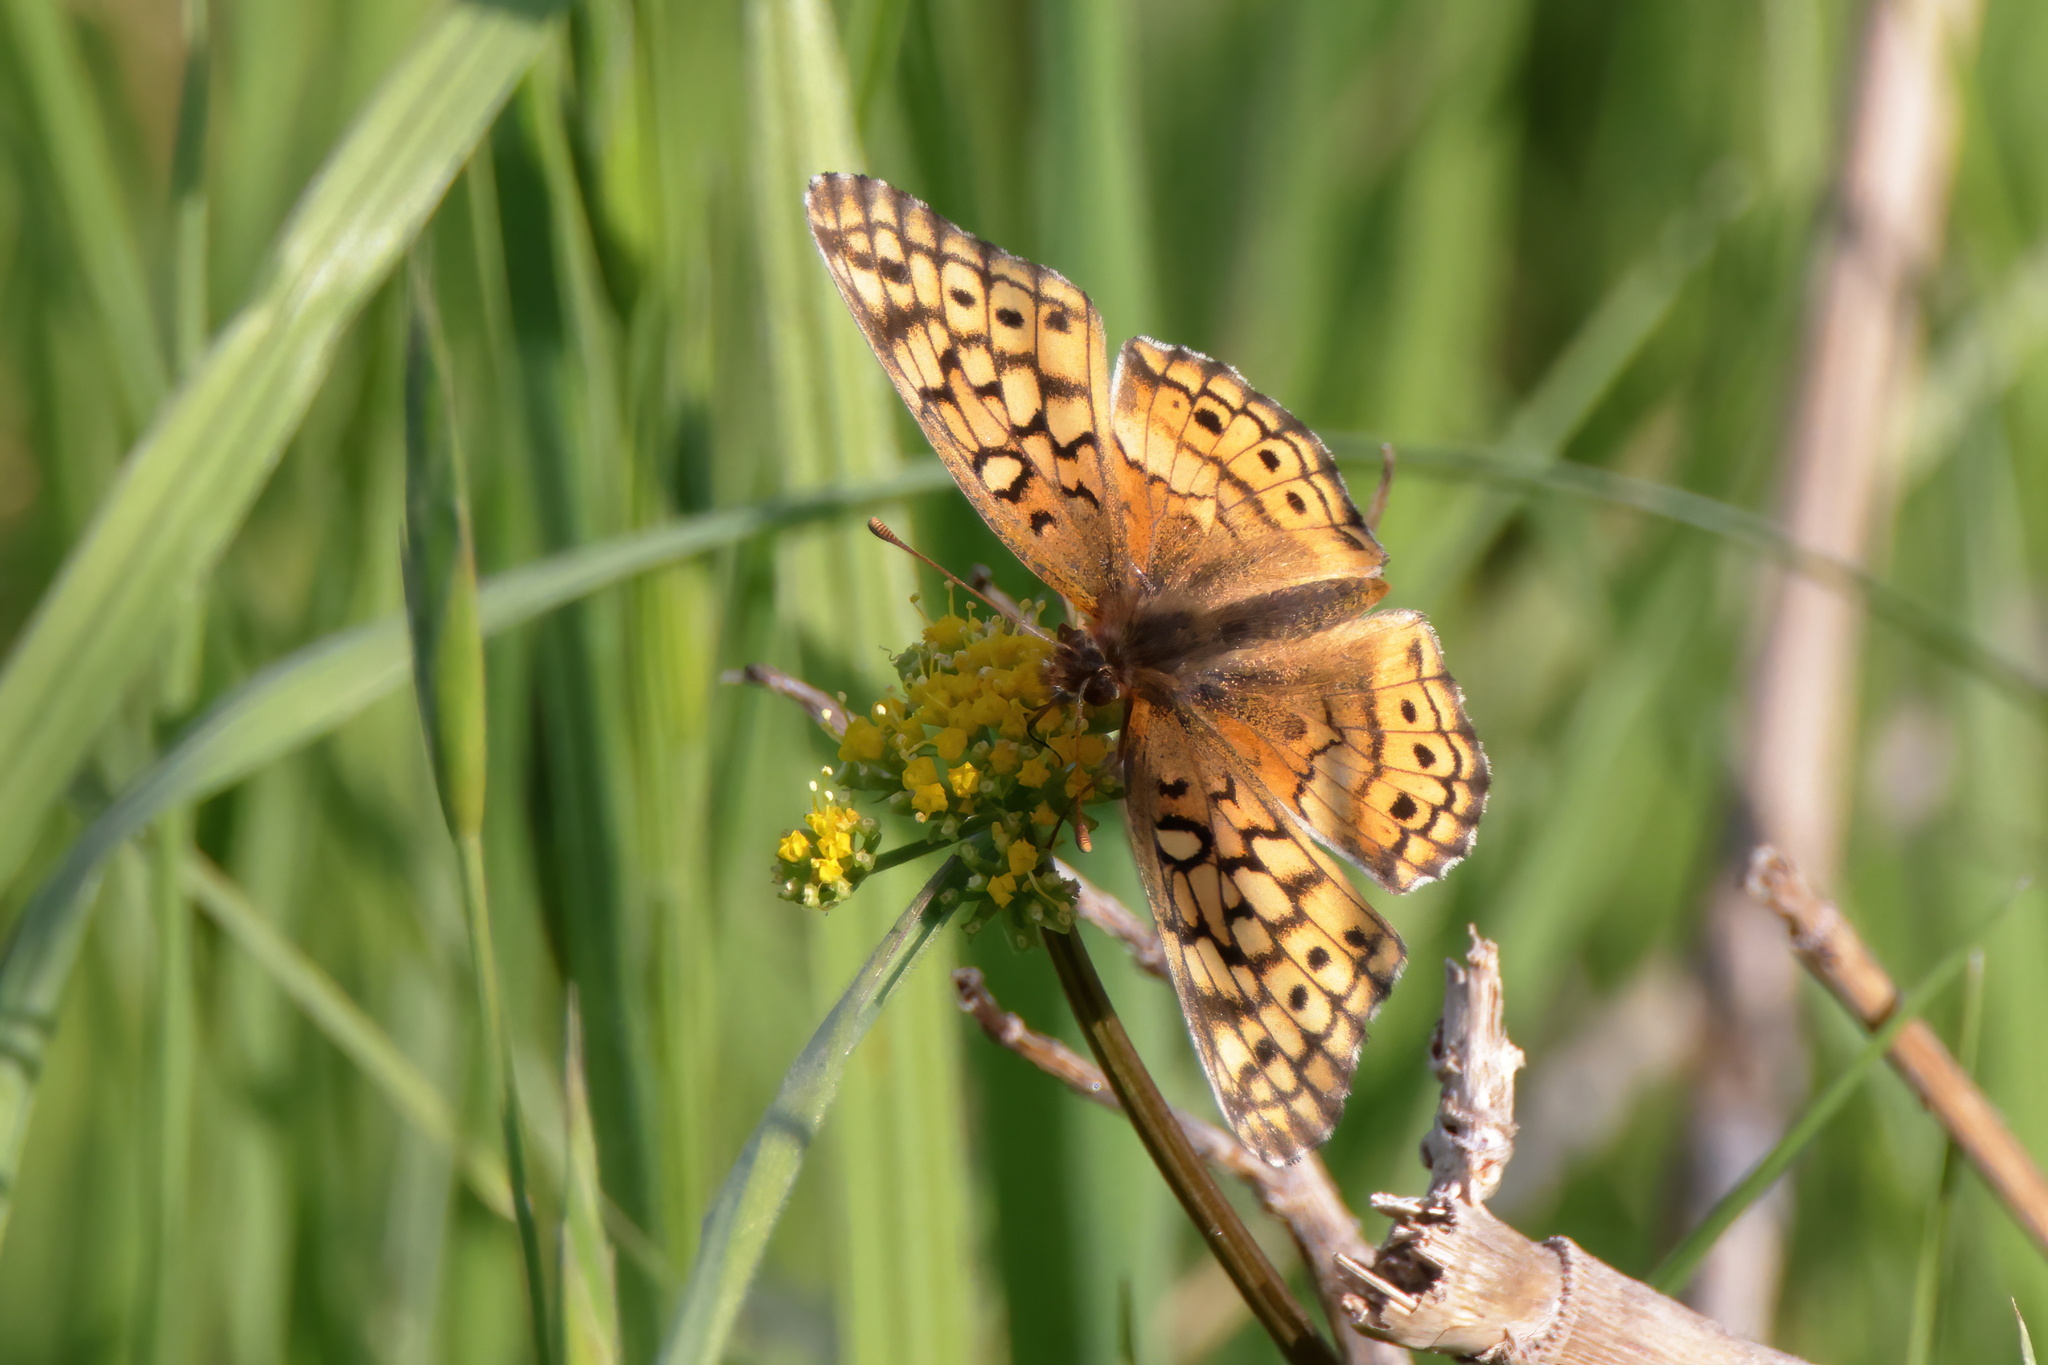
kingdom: Animalia
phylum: Arthropoda
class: Insecta
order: Lepidoptera
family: Nymphalidae
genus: Euptoieta
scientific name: Euptoieta claudia
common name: Variegated fritillary
